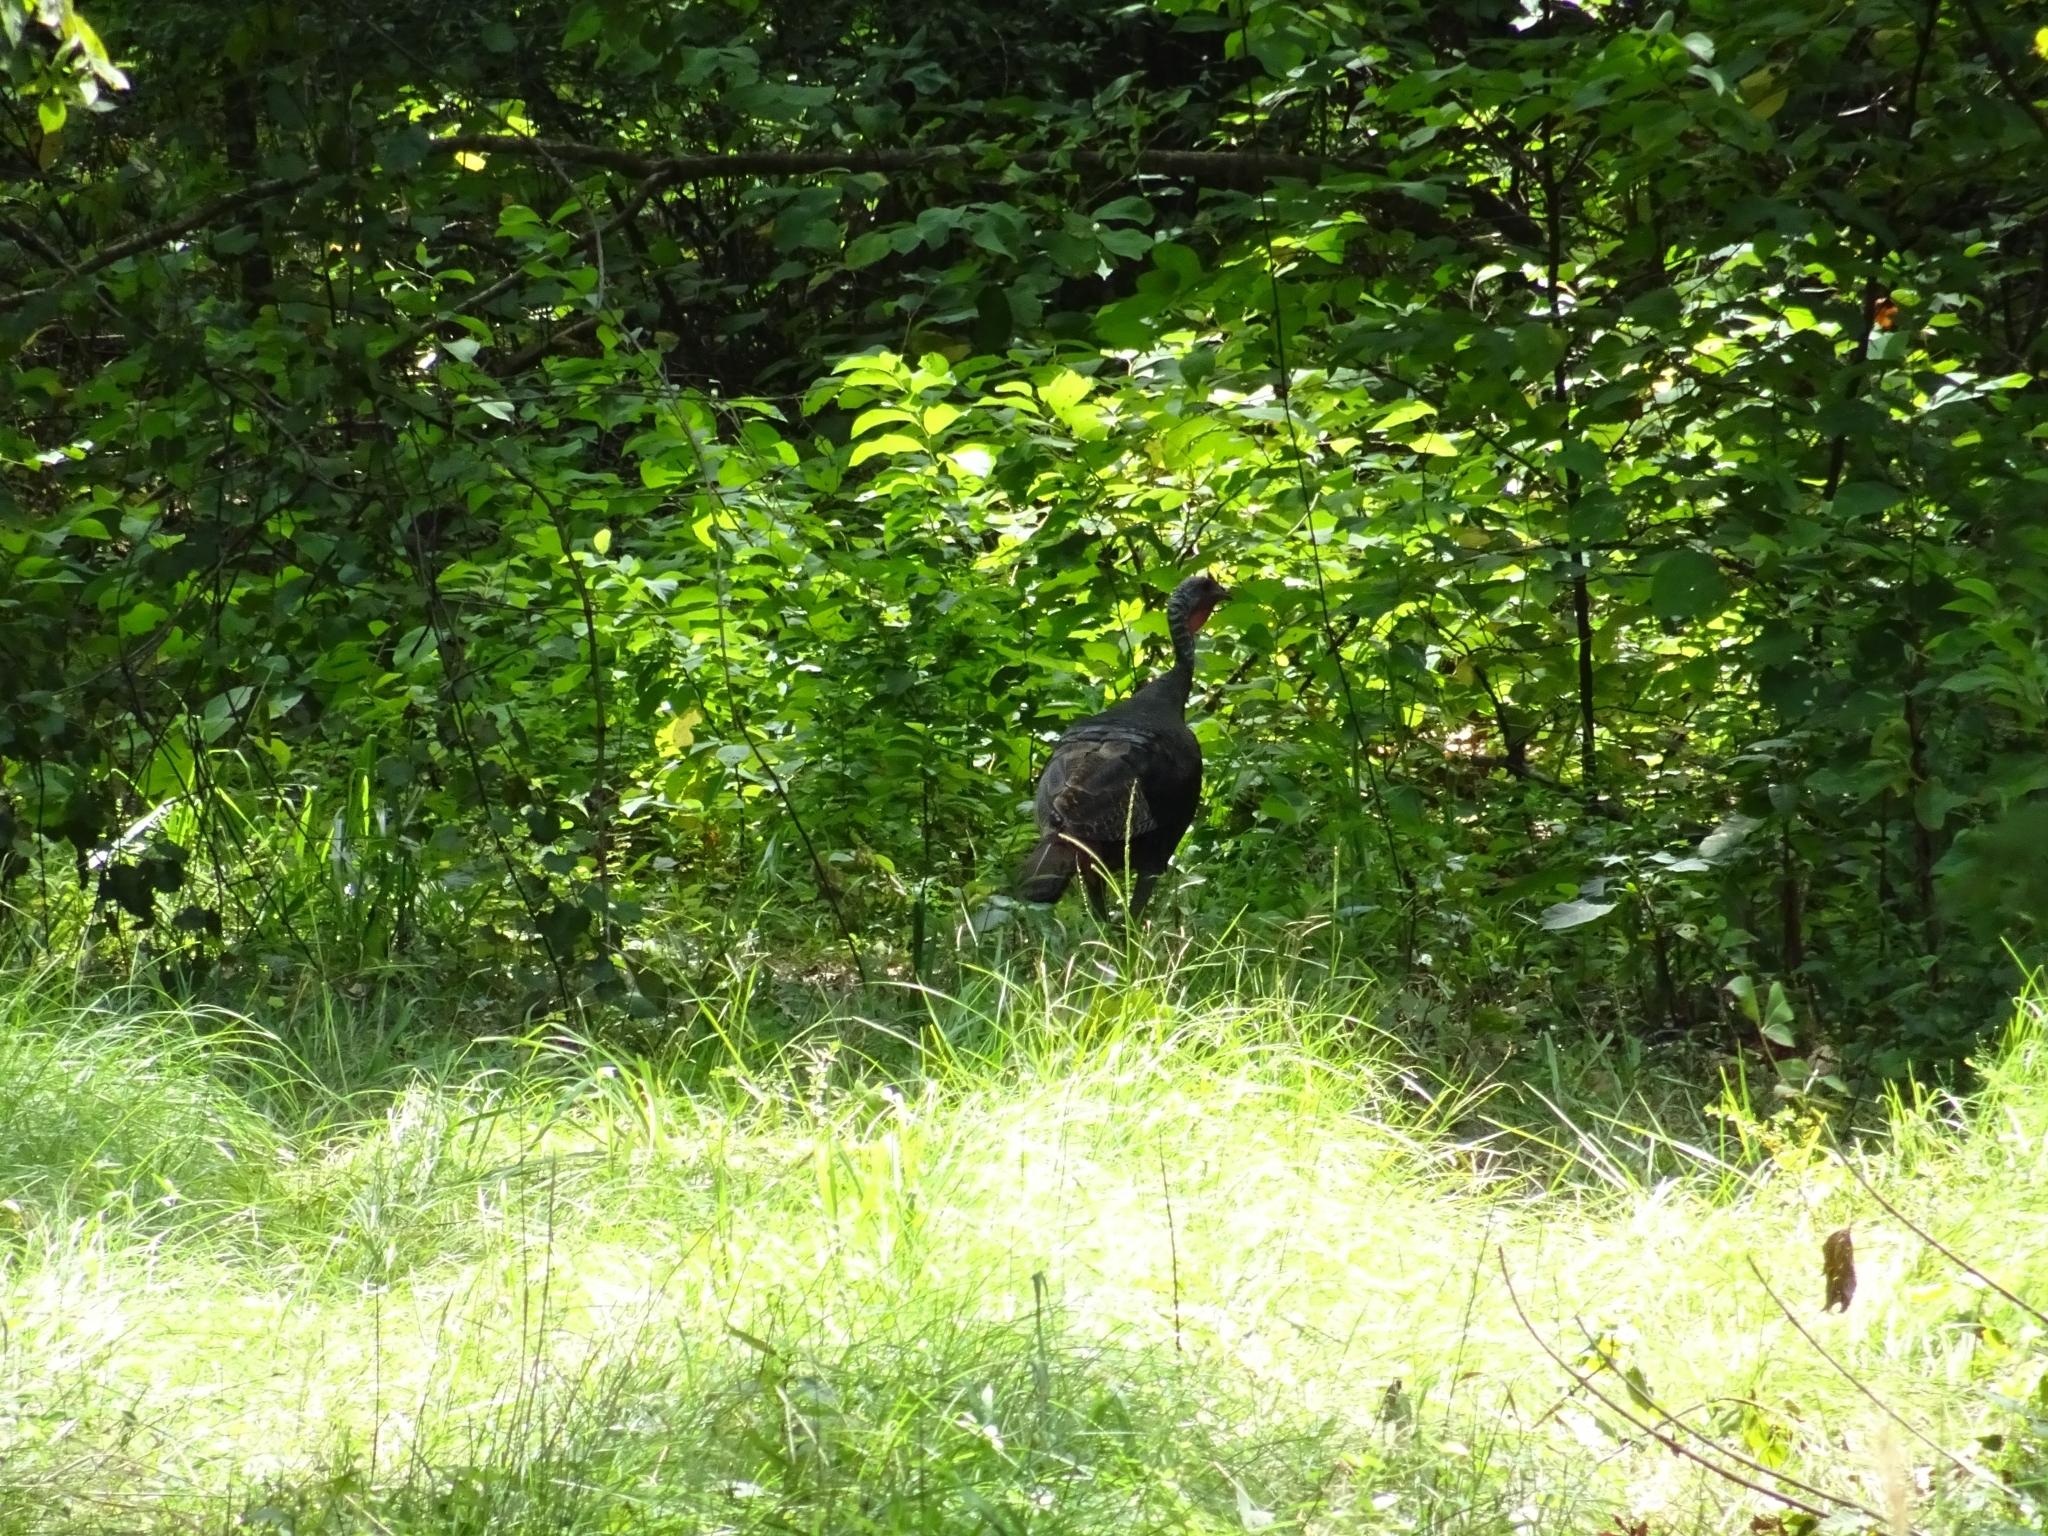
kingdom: Animalia
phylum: Chordata
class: Aves
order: Galliformes
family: Phasianidae
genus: Meleagris
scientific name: Meleagris gallopavo
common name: Wild turkey
